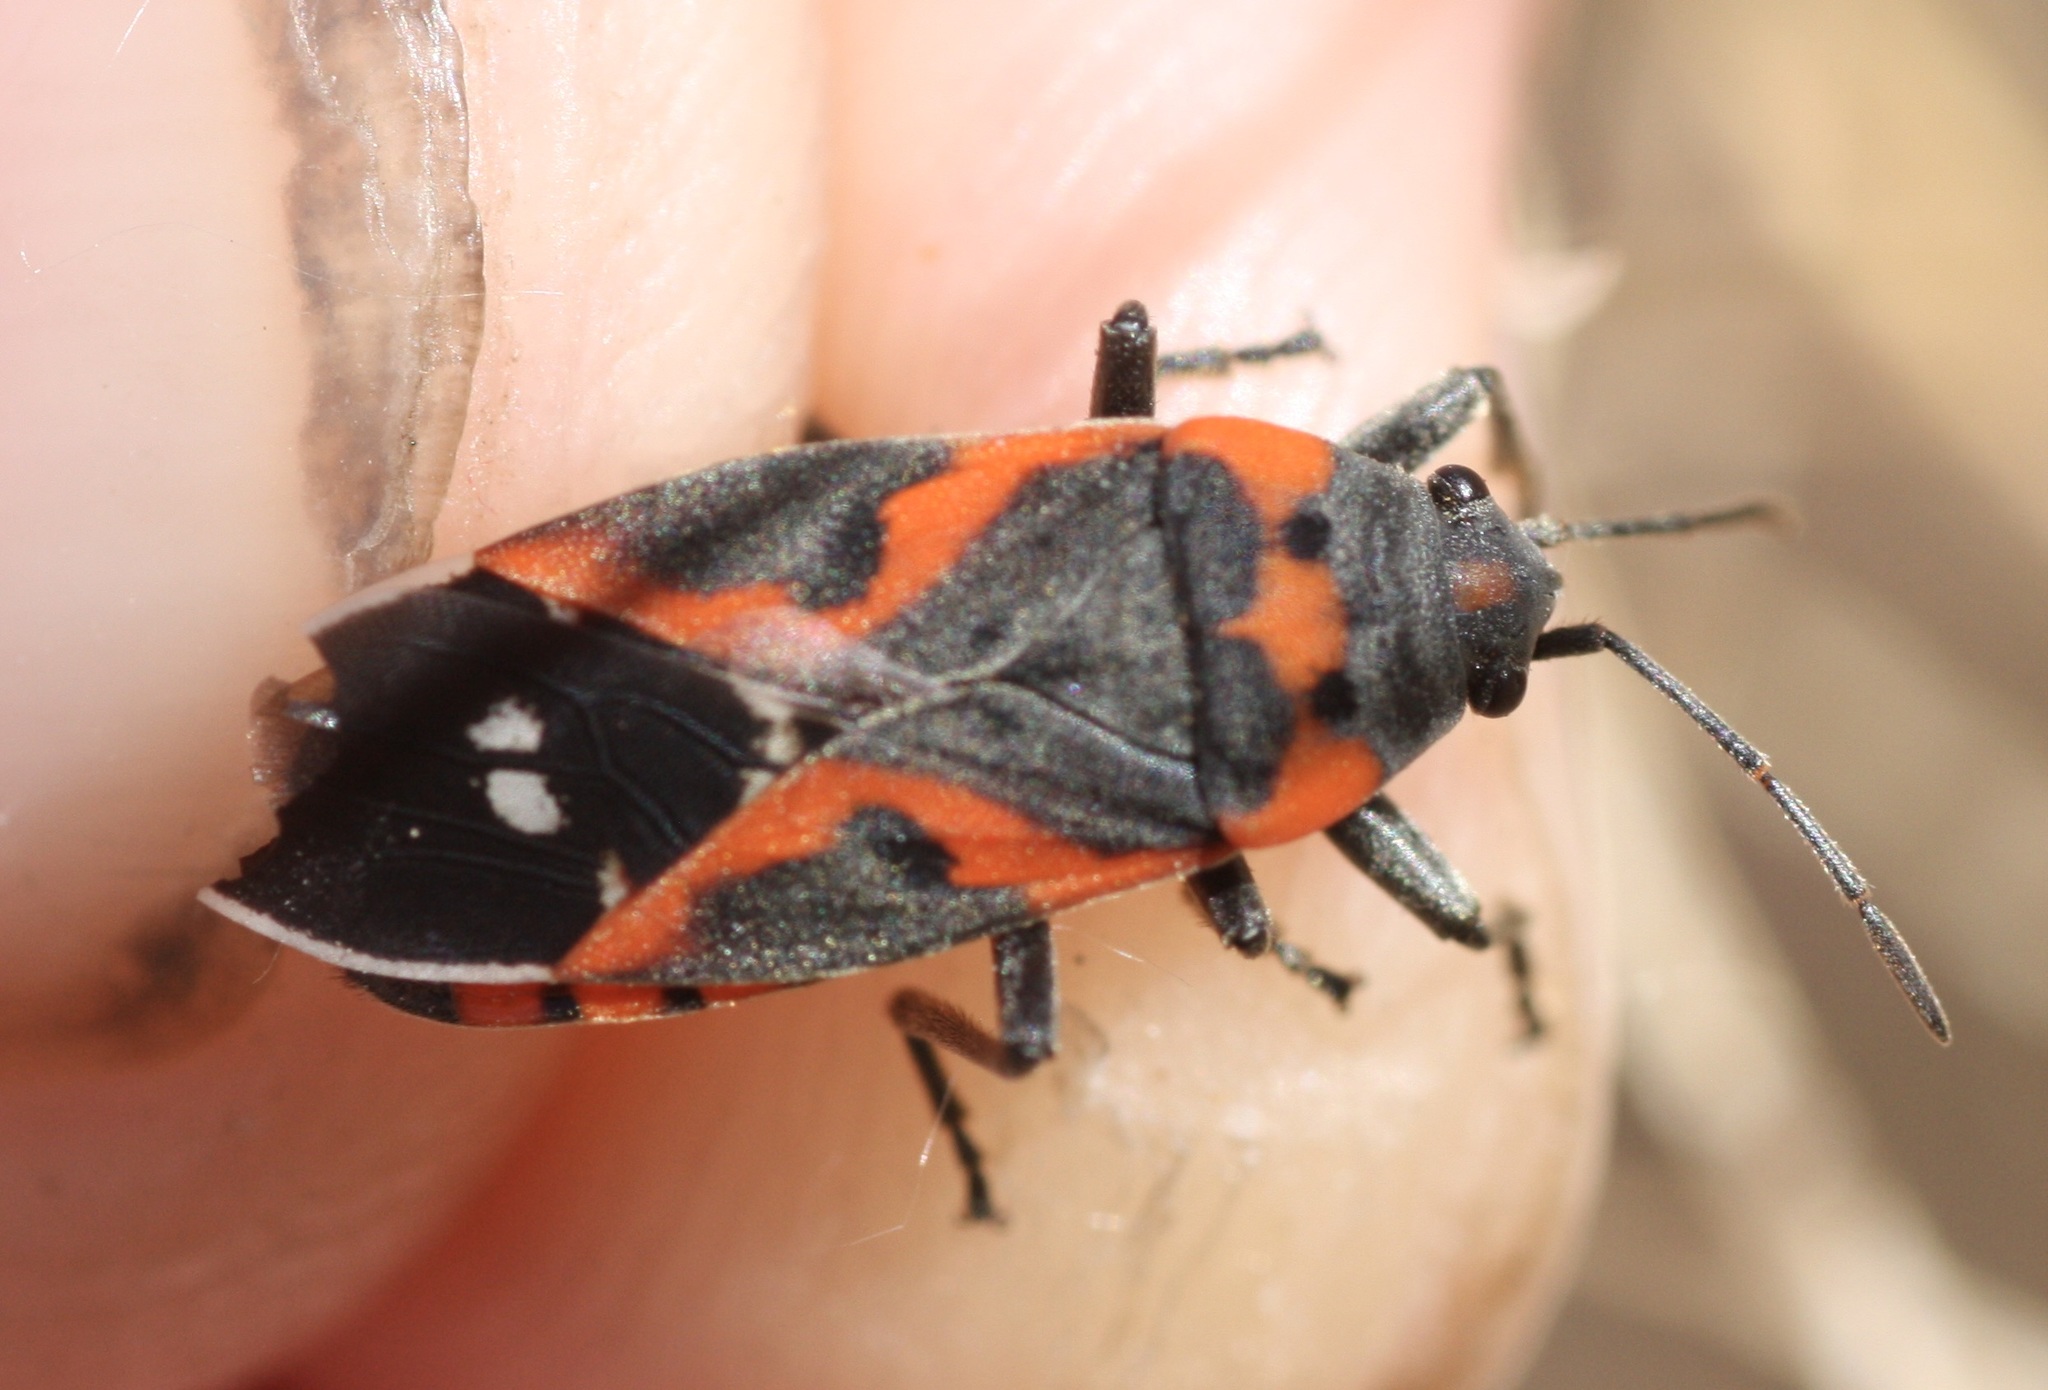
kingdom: Animalia
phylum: Arthropoda
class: Insecta
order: Hemiptera
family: Lygaeidae
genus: Lygaeus
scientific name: Lygaeus kalmii
